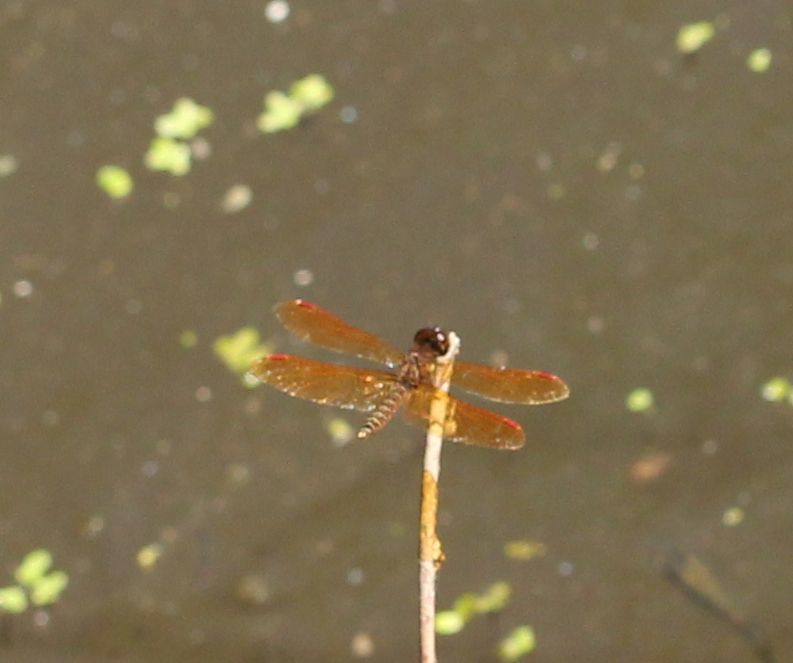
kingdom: Animalia
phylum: Arthropoda
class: Insecta
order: Odonata
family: Libellulidae
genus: Perithemis
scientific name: Perithemis tenera
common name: Eastern amberwing
